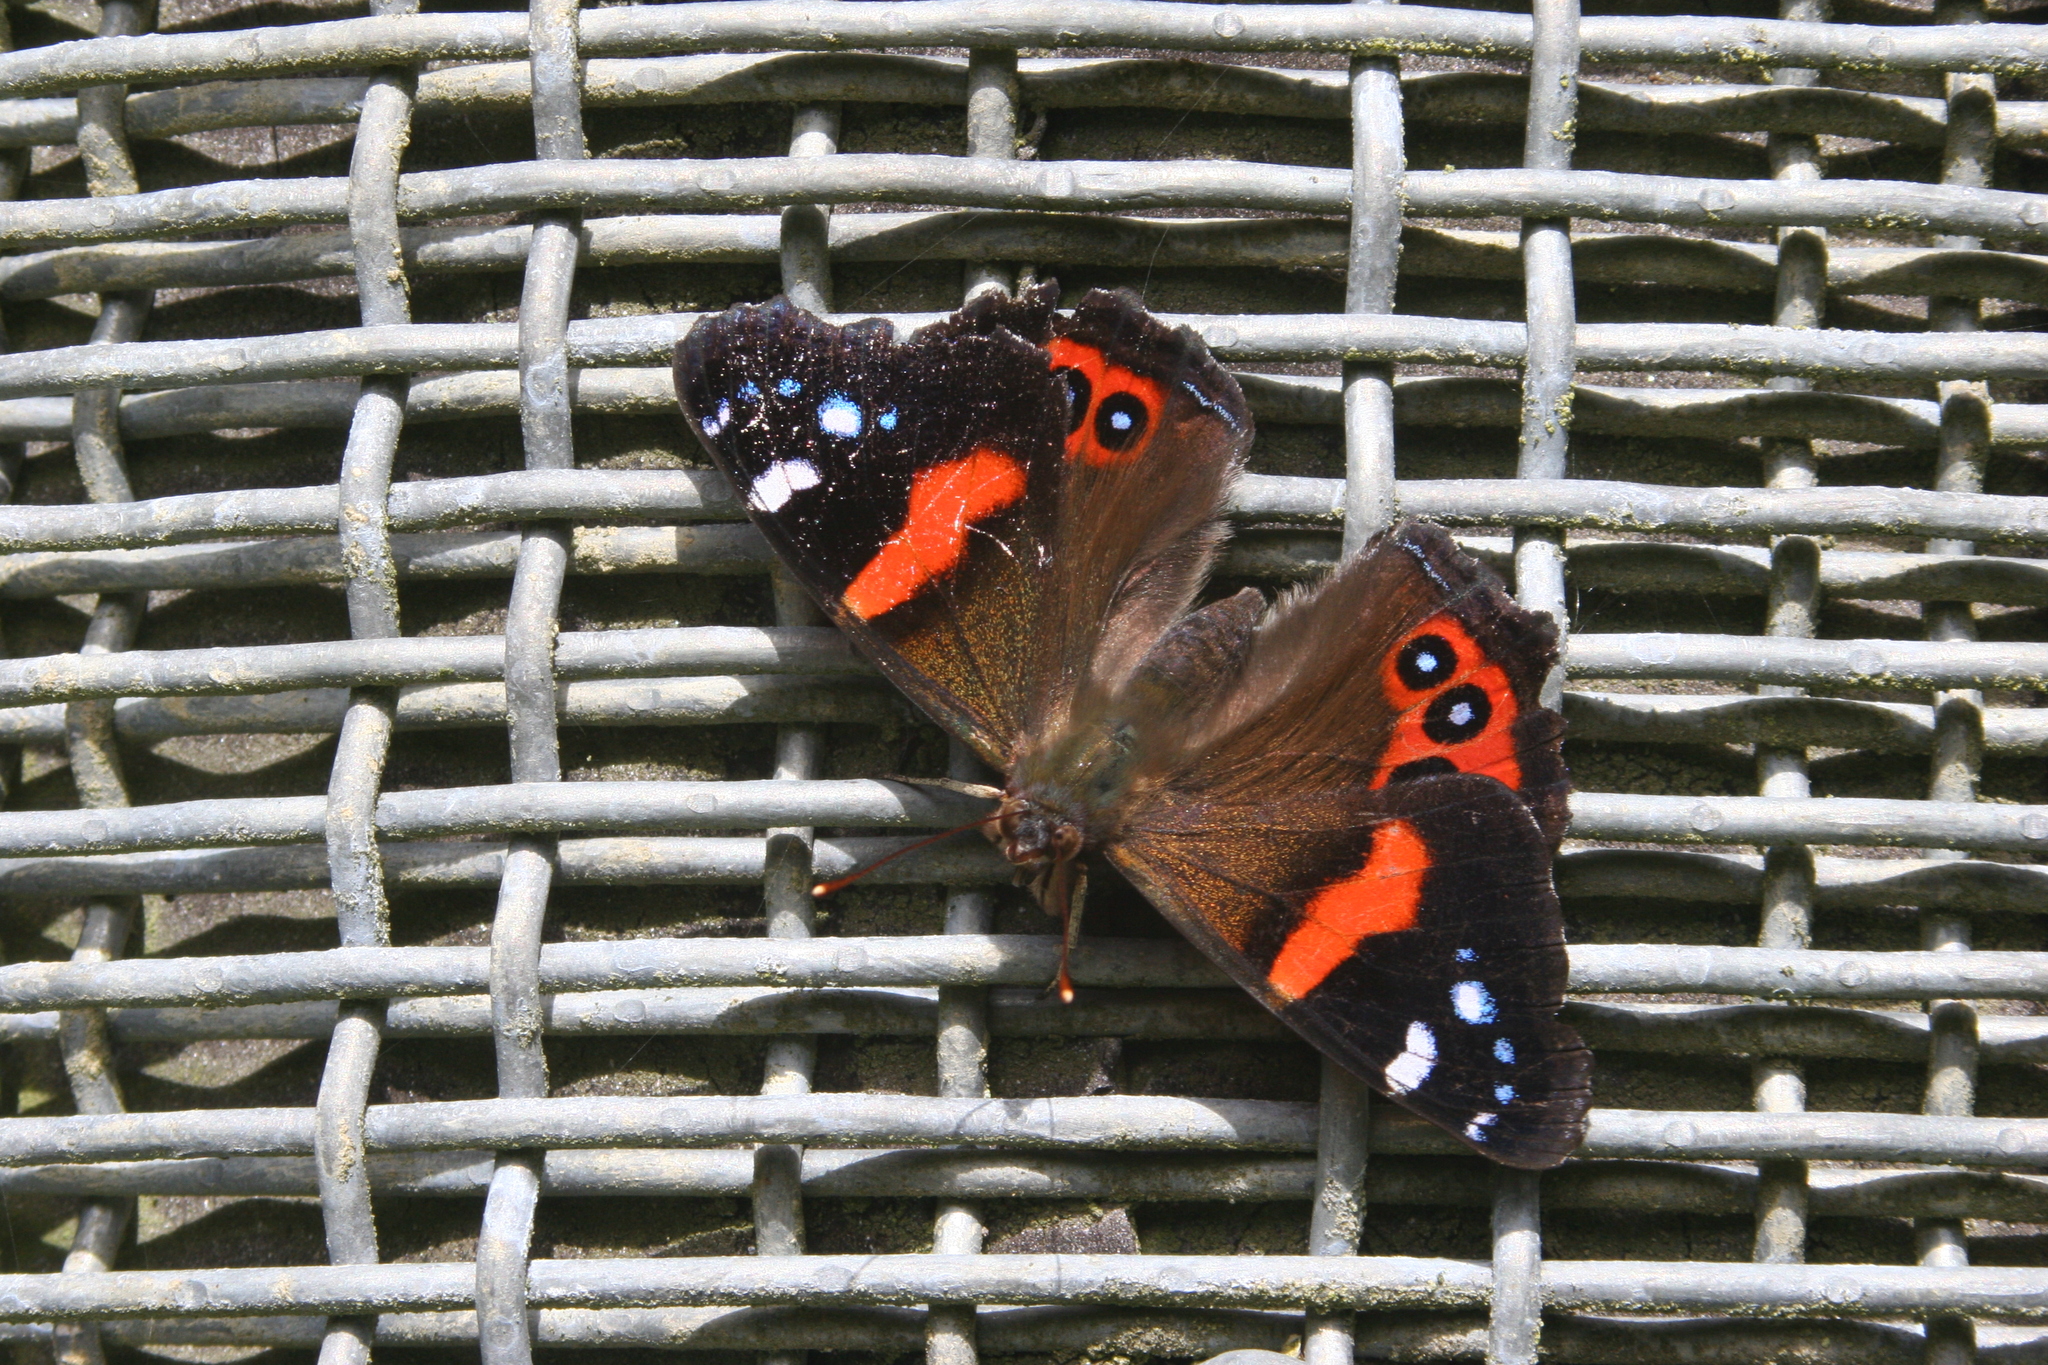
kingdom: Animalia
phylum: Arthropoda
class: Insecta
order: Lepidoptera
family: Nymphalidae
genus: Vanessa
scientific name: Vanessa gonerilla
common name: New zealand red admiral
